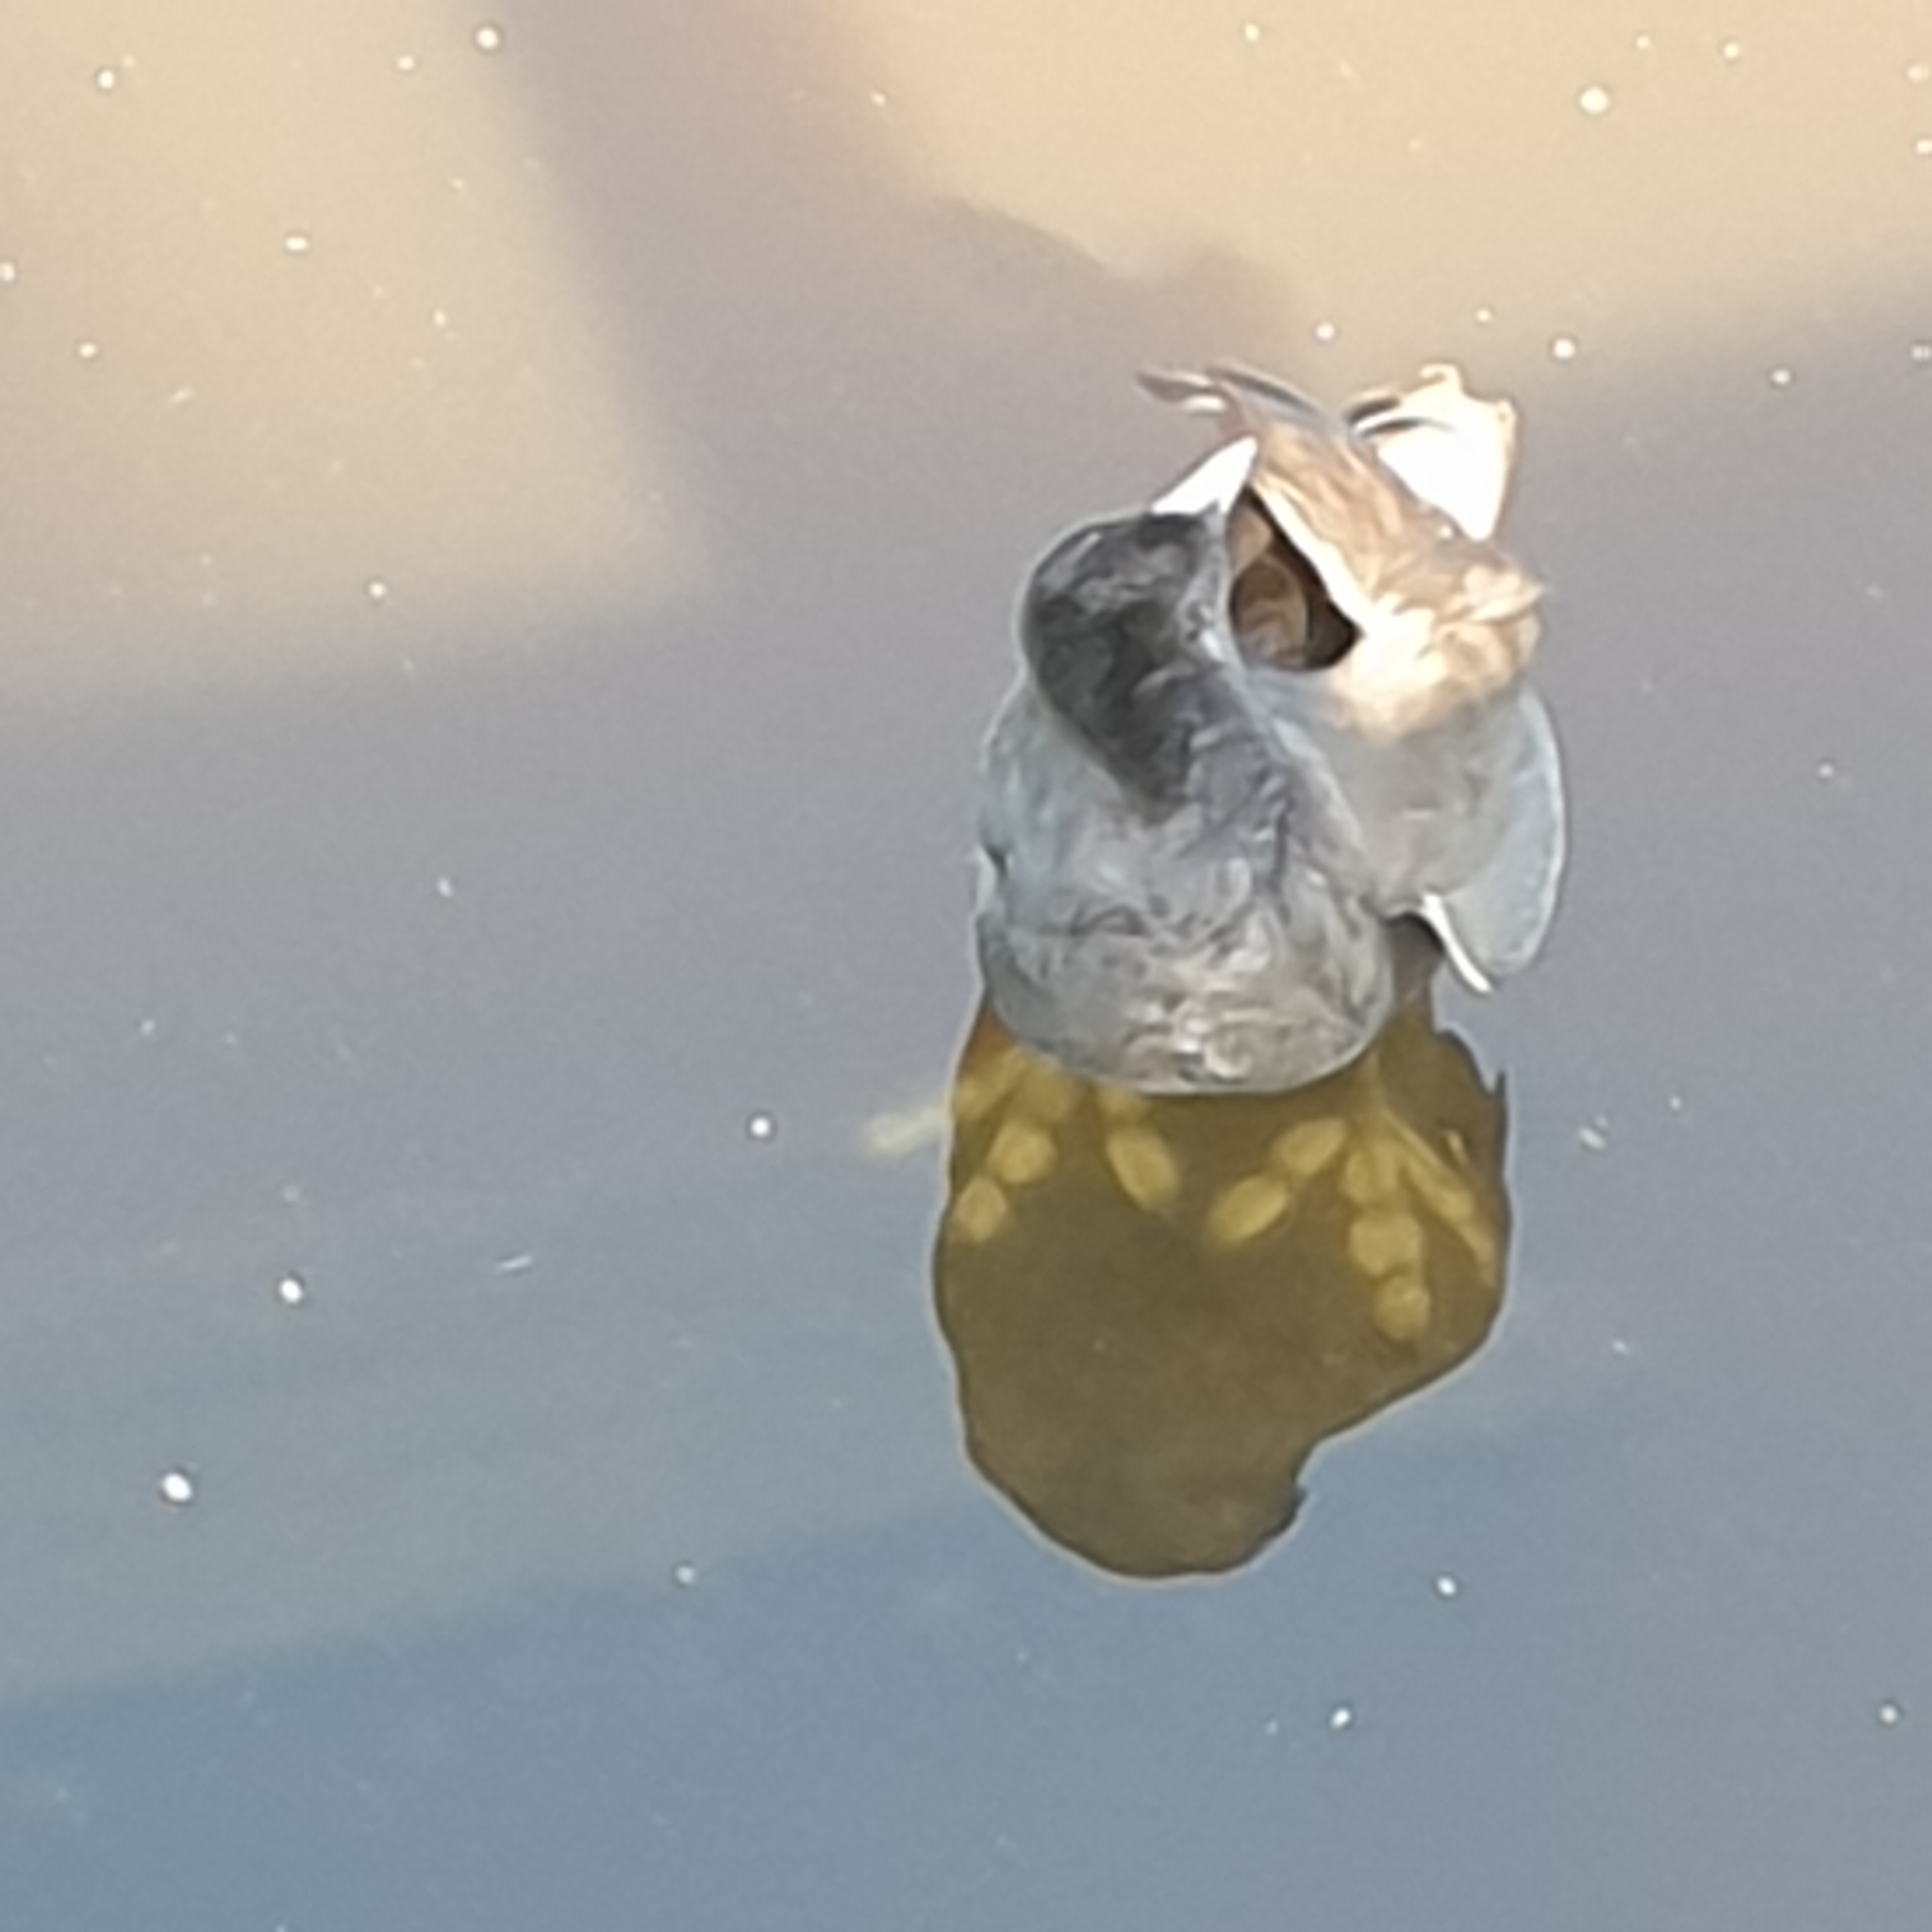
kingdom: Animalia
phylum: Chordata
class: Aves
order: Gruiformes
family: Rallidae
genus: Fulica
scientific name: Fulica atra
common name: Eurasian coot
